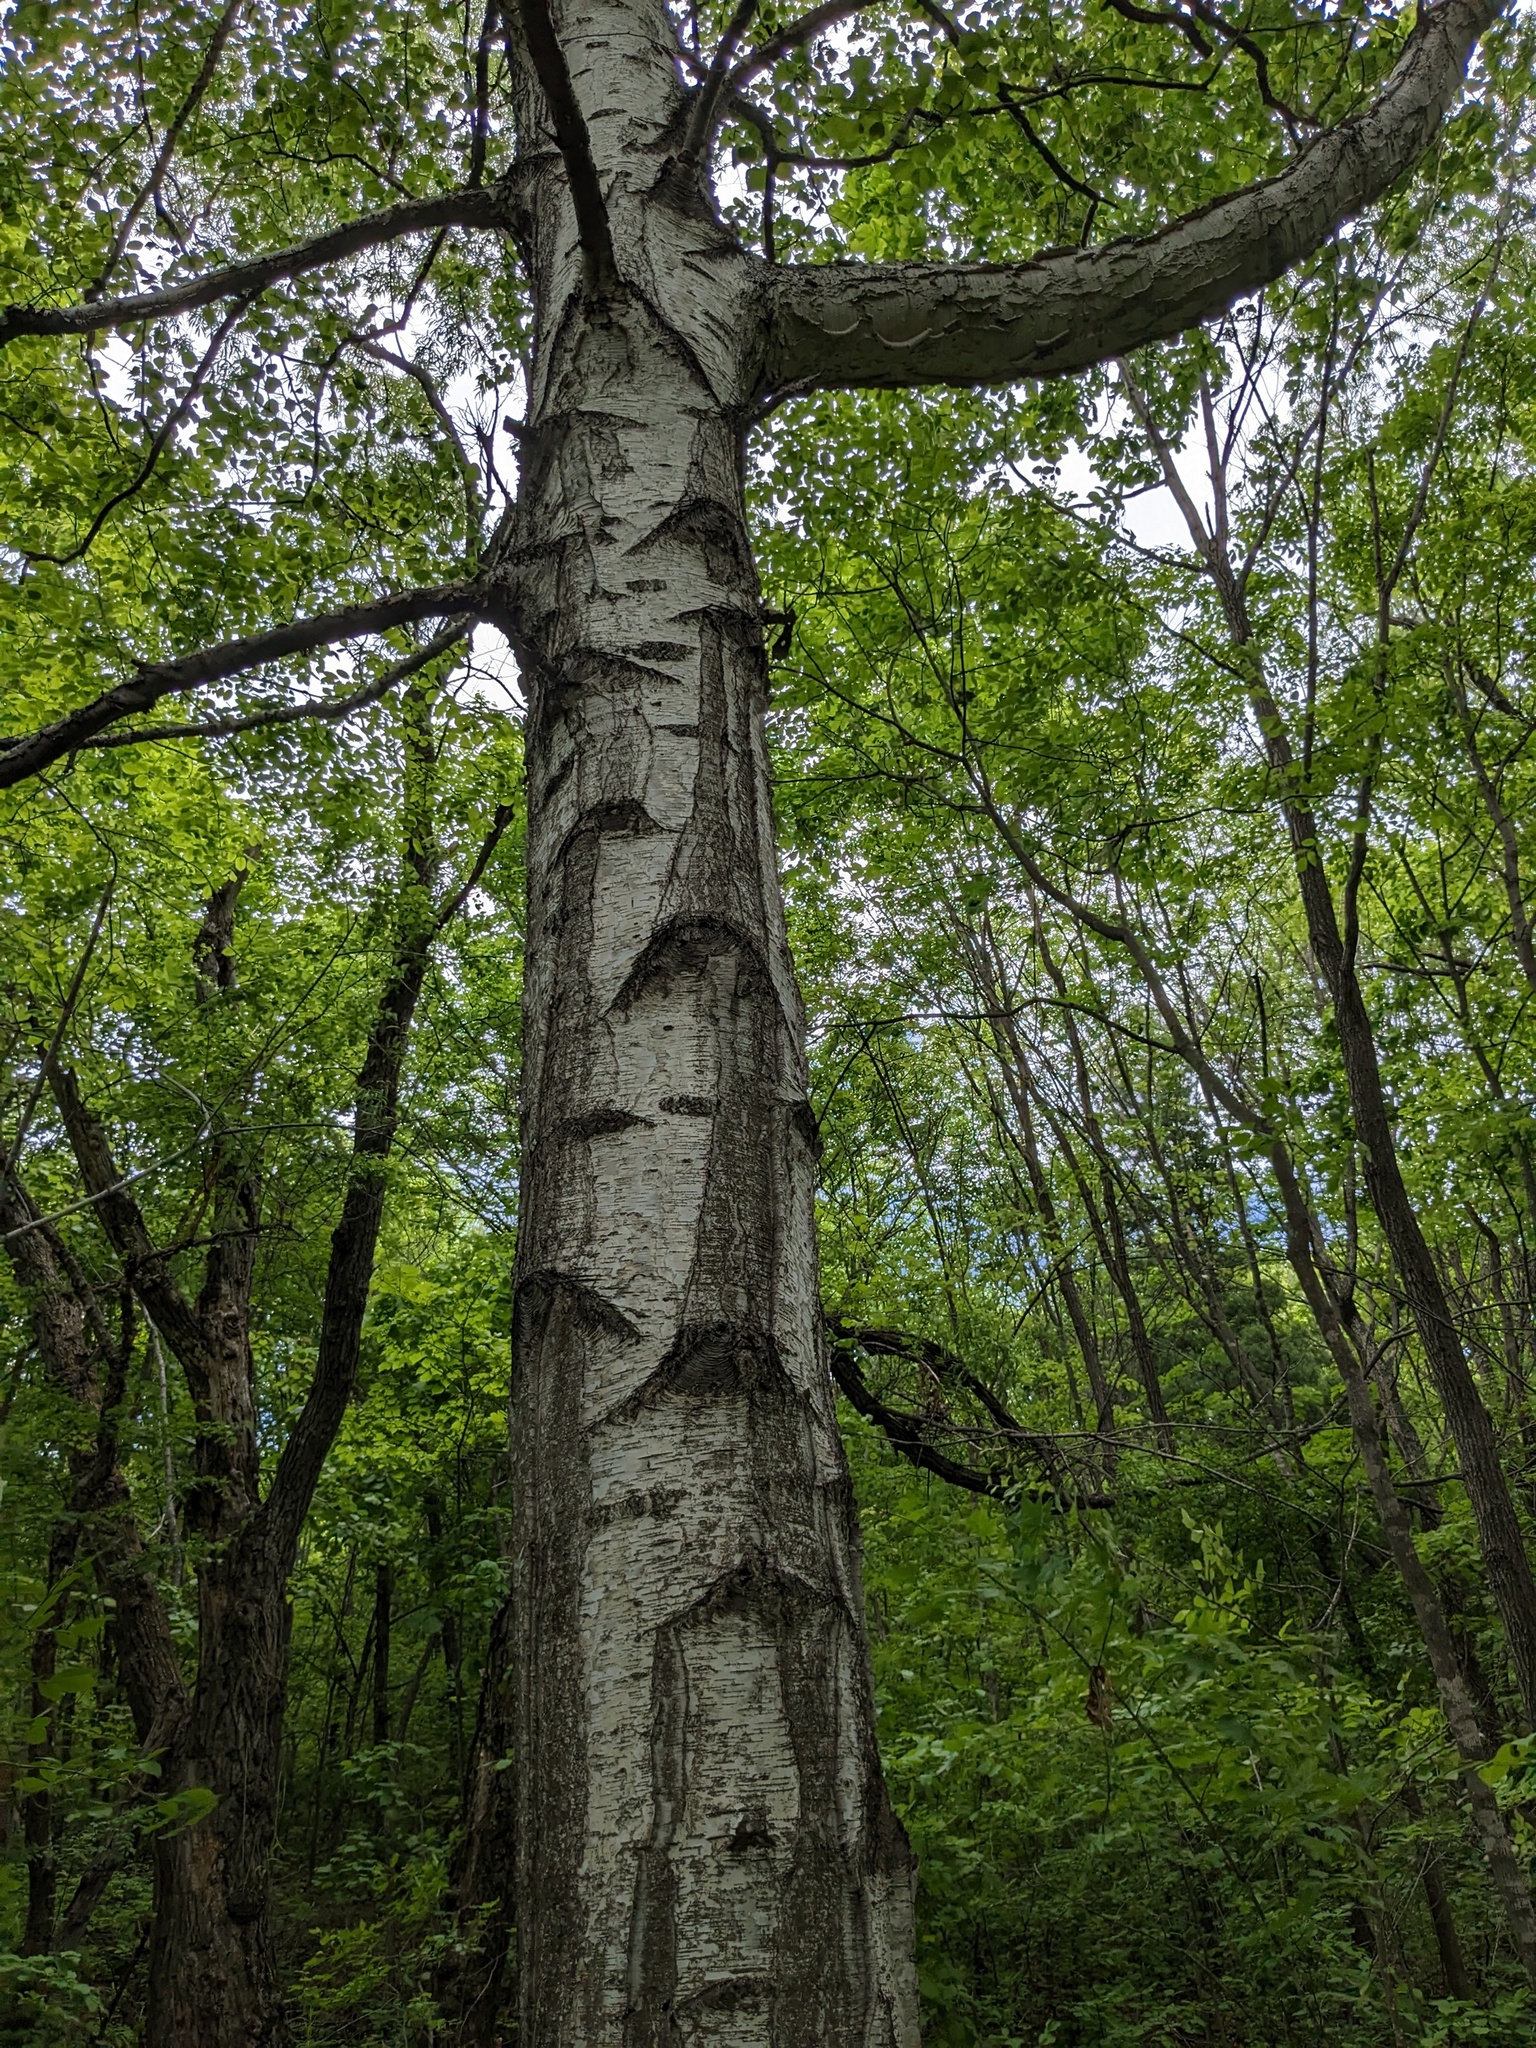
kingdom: Plantae
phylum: Tracheophyta
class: Magnoliopsida
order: Fagales
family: Betulaceae
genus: Betula
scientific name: Betula pendula
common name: Silver birch
